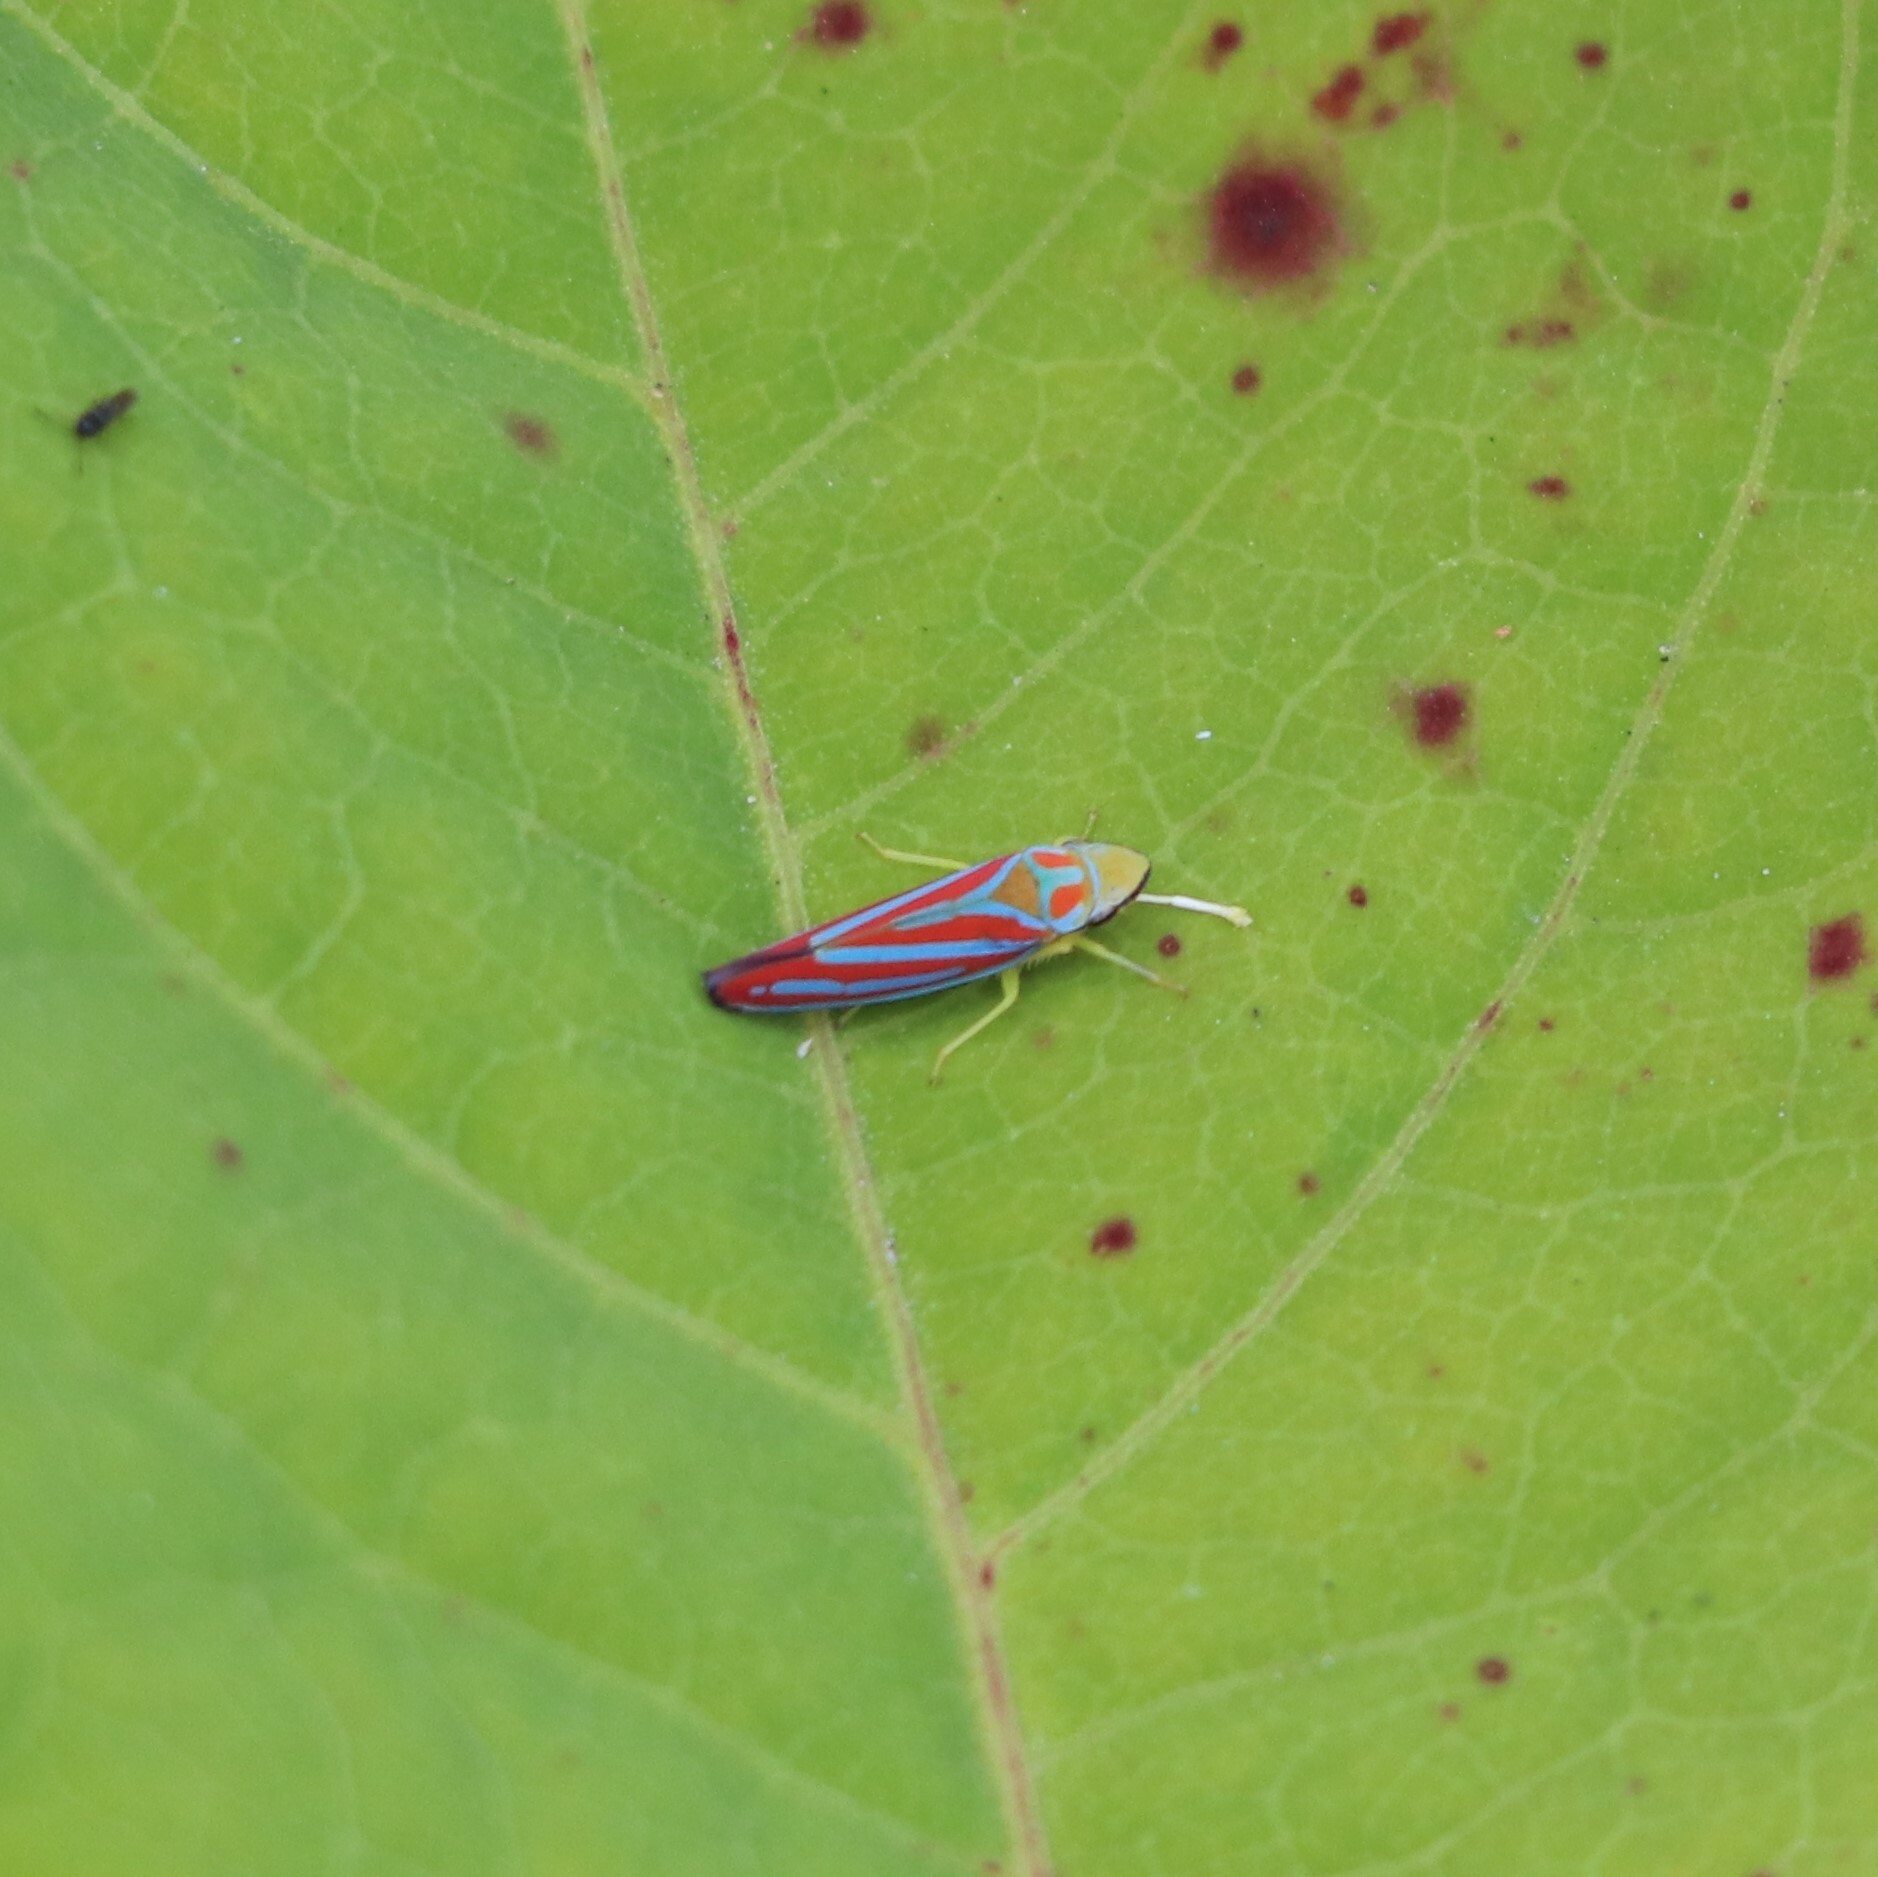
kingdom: Animalia
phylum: Arthropoda
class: Insecta
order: Hemiptera
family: Cicadellidae
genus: Graphocephala
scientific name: Graphocephala coccinea
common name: Candy-striped leafhopper
